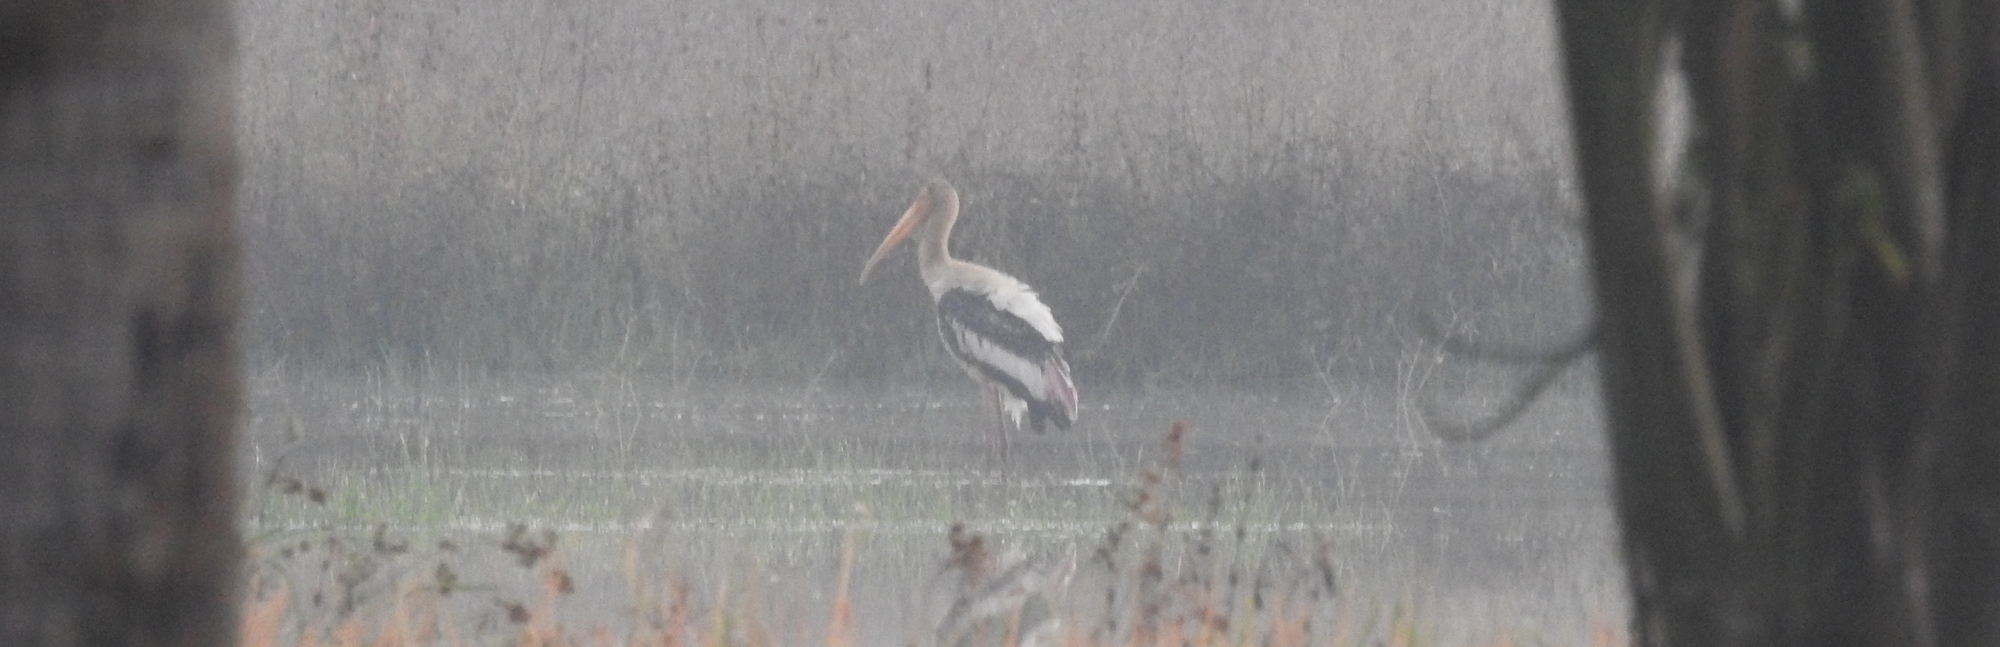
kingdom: Animalia
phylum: Chordata
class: Aves
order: Ciconiiformes
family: Ciconiidae
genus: Mycteria
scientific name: Mycteria leucocephala
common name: Painted stork
